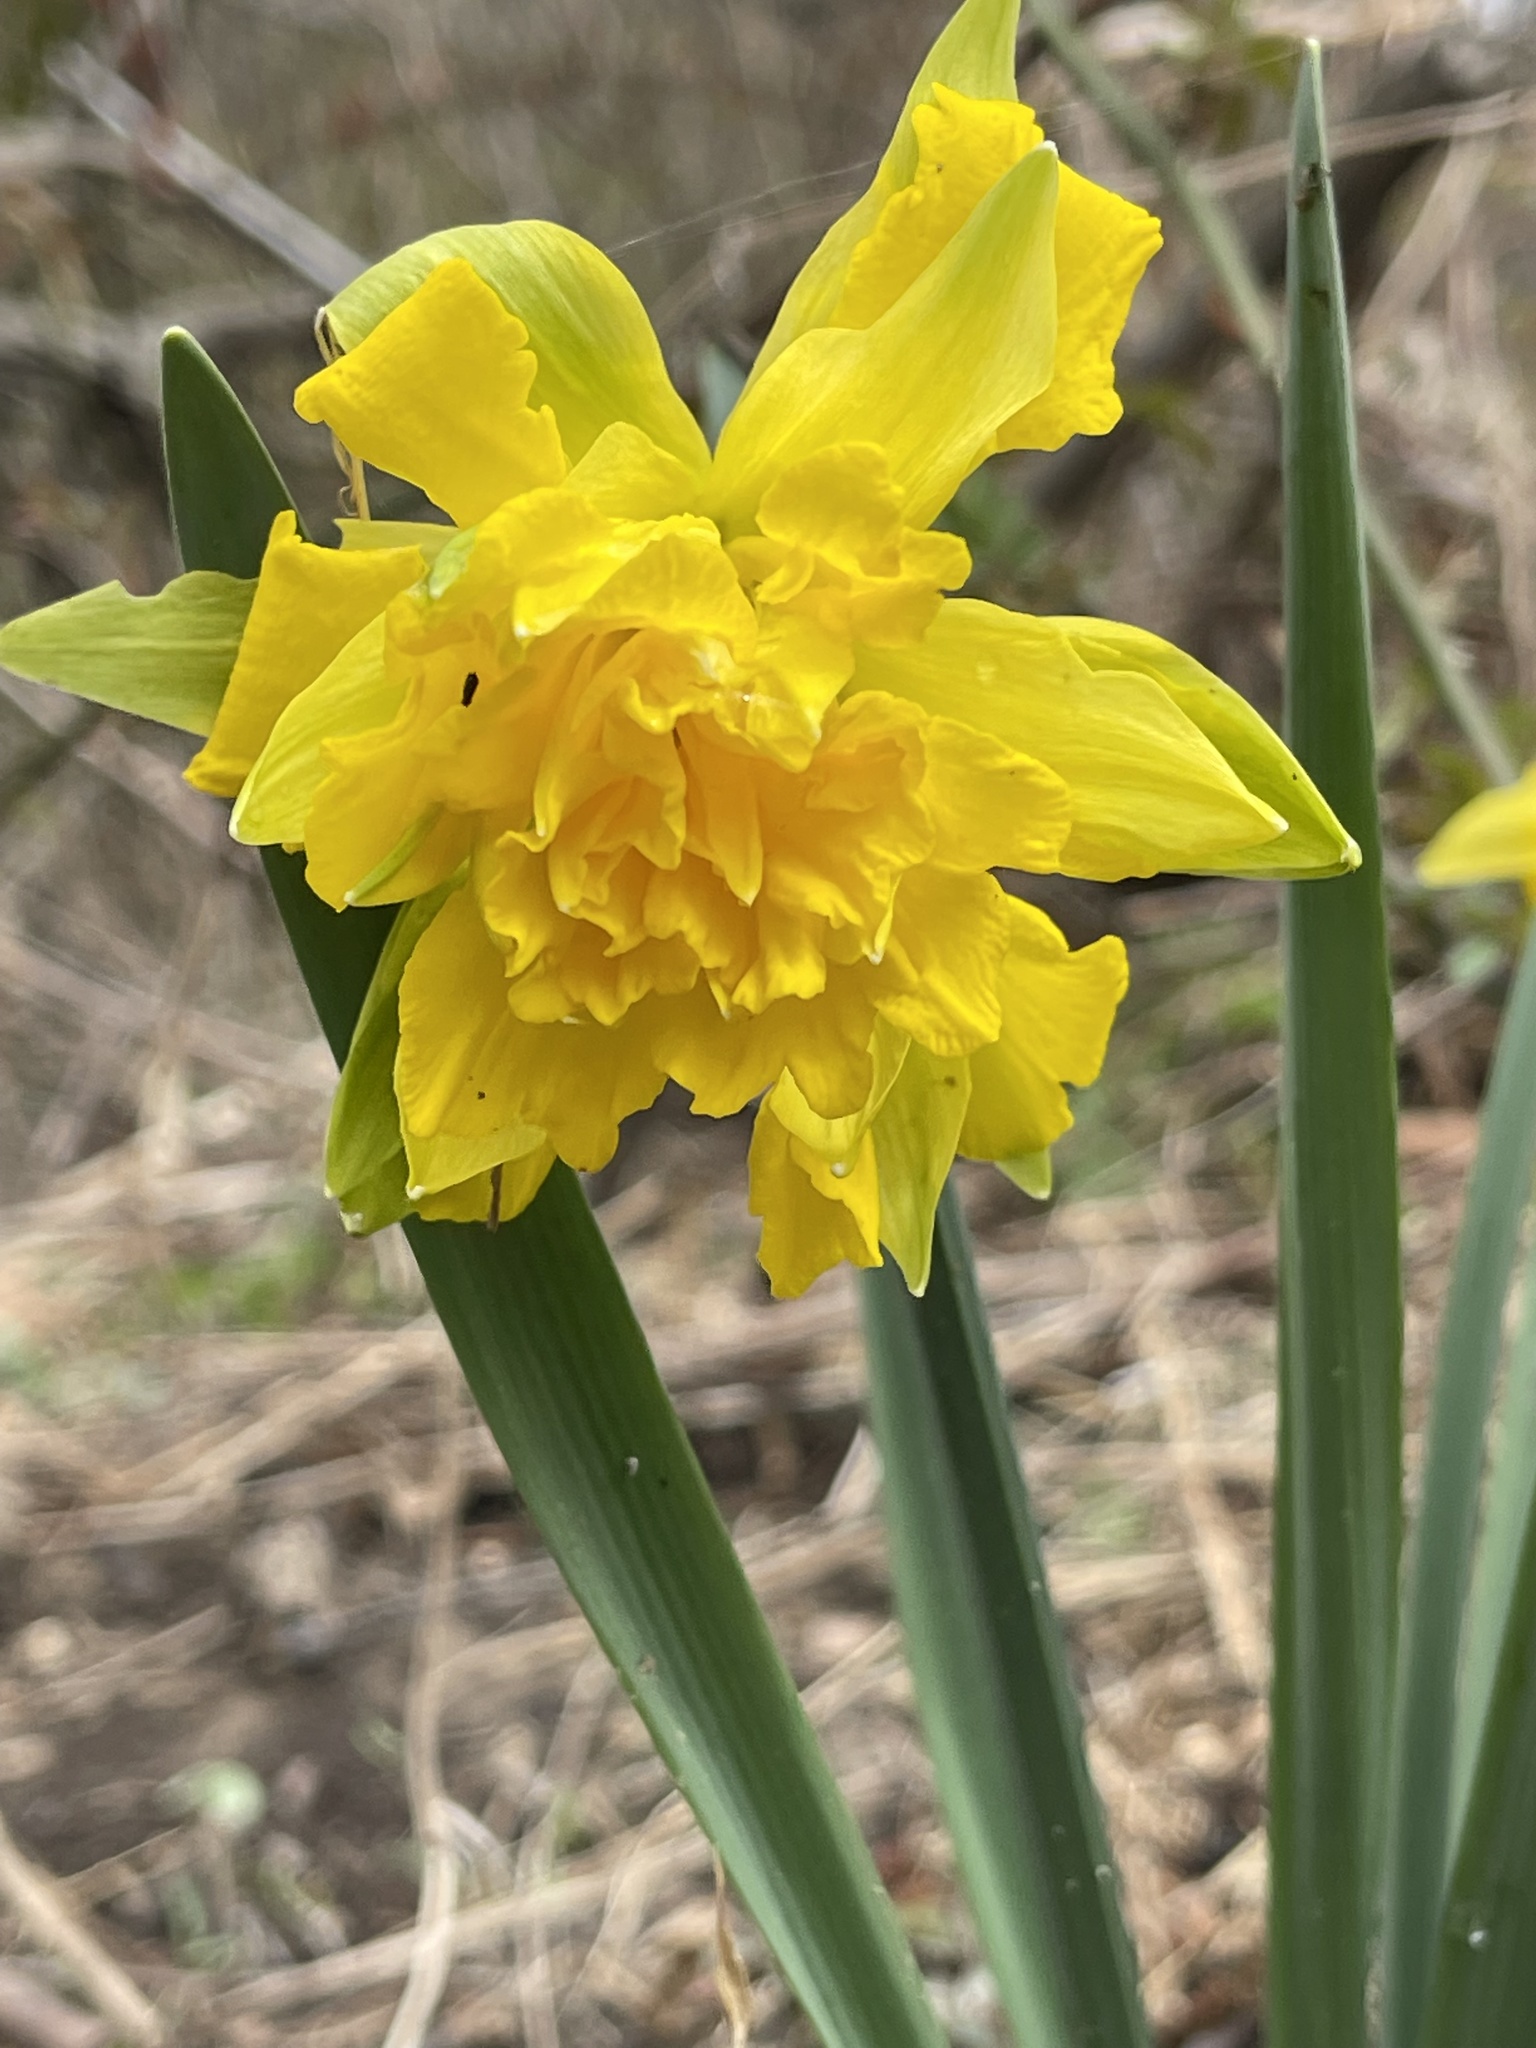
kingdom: Plantae
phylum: Tracheophyta
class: Liliopsida
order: Asparagales
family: Amaryllidaceae
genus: Narcissus
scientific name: Narcissus
